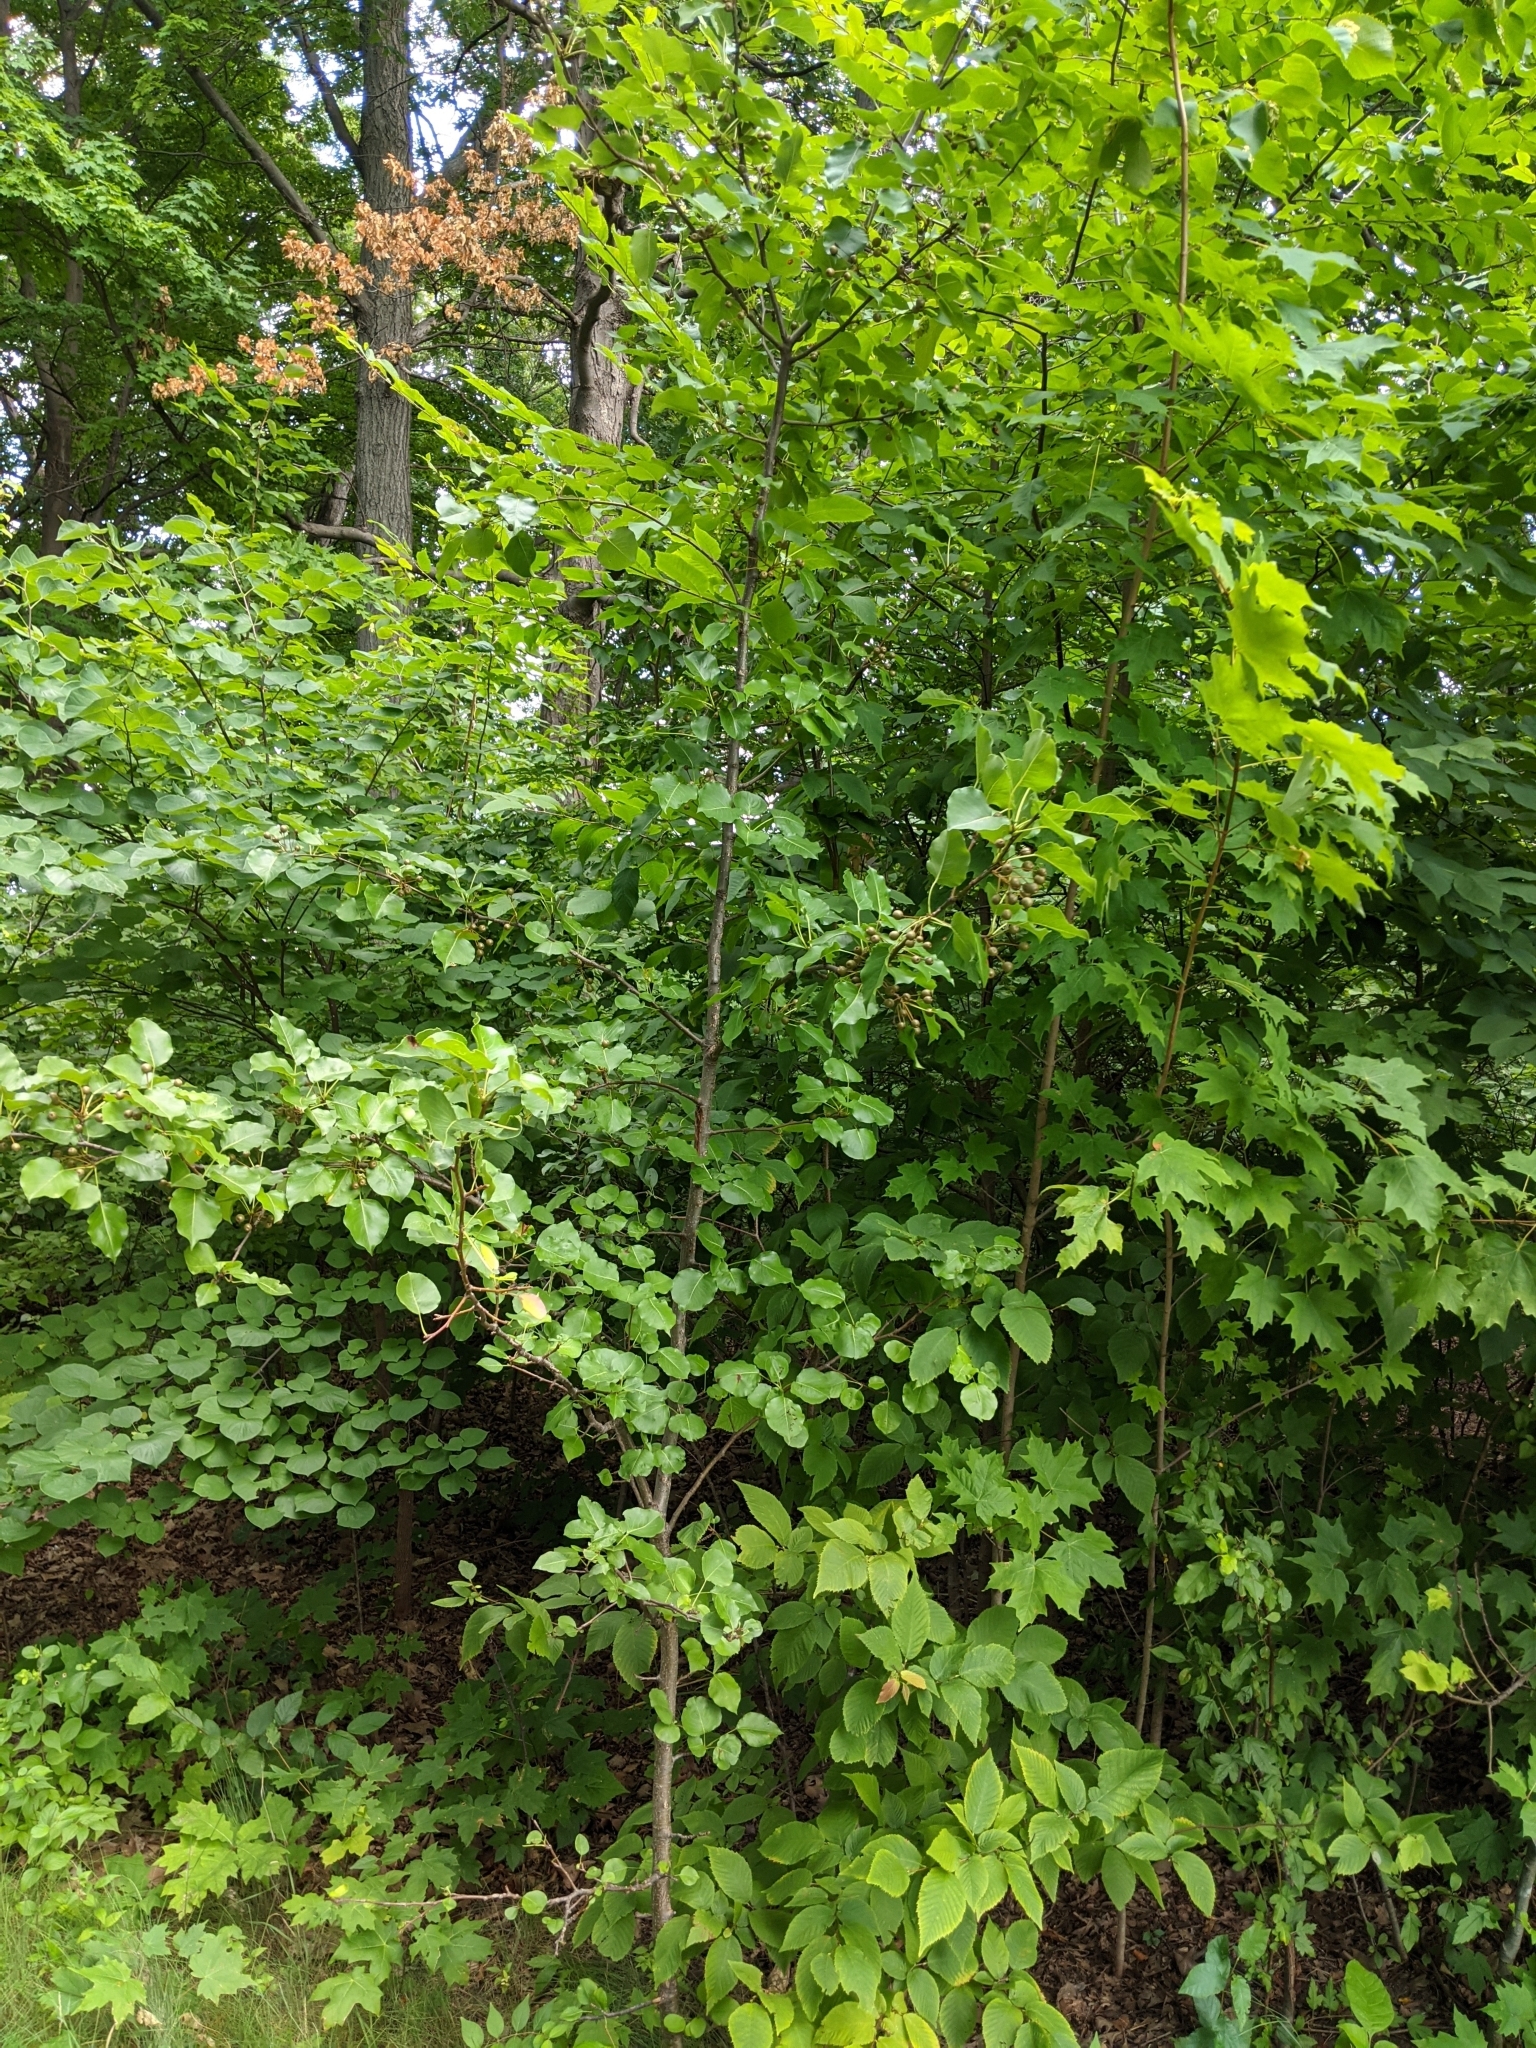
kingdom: Plantae
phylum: Tracheophyta
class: Magnoliopsida
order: Rosales
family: Rosaceae
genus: Pyrus
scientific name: Pyrus calleryana
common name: Callery pear
